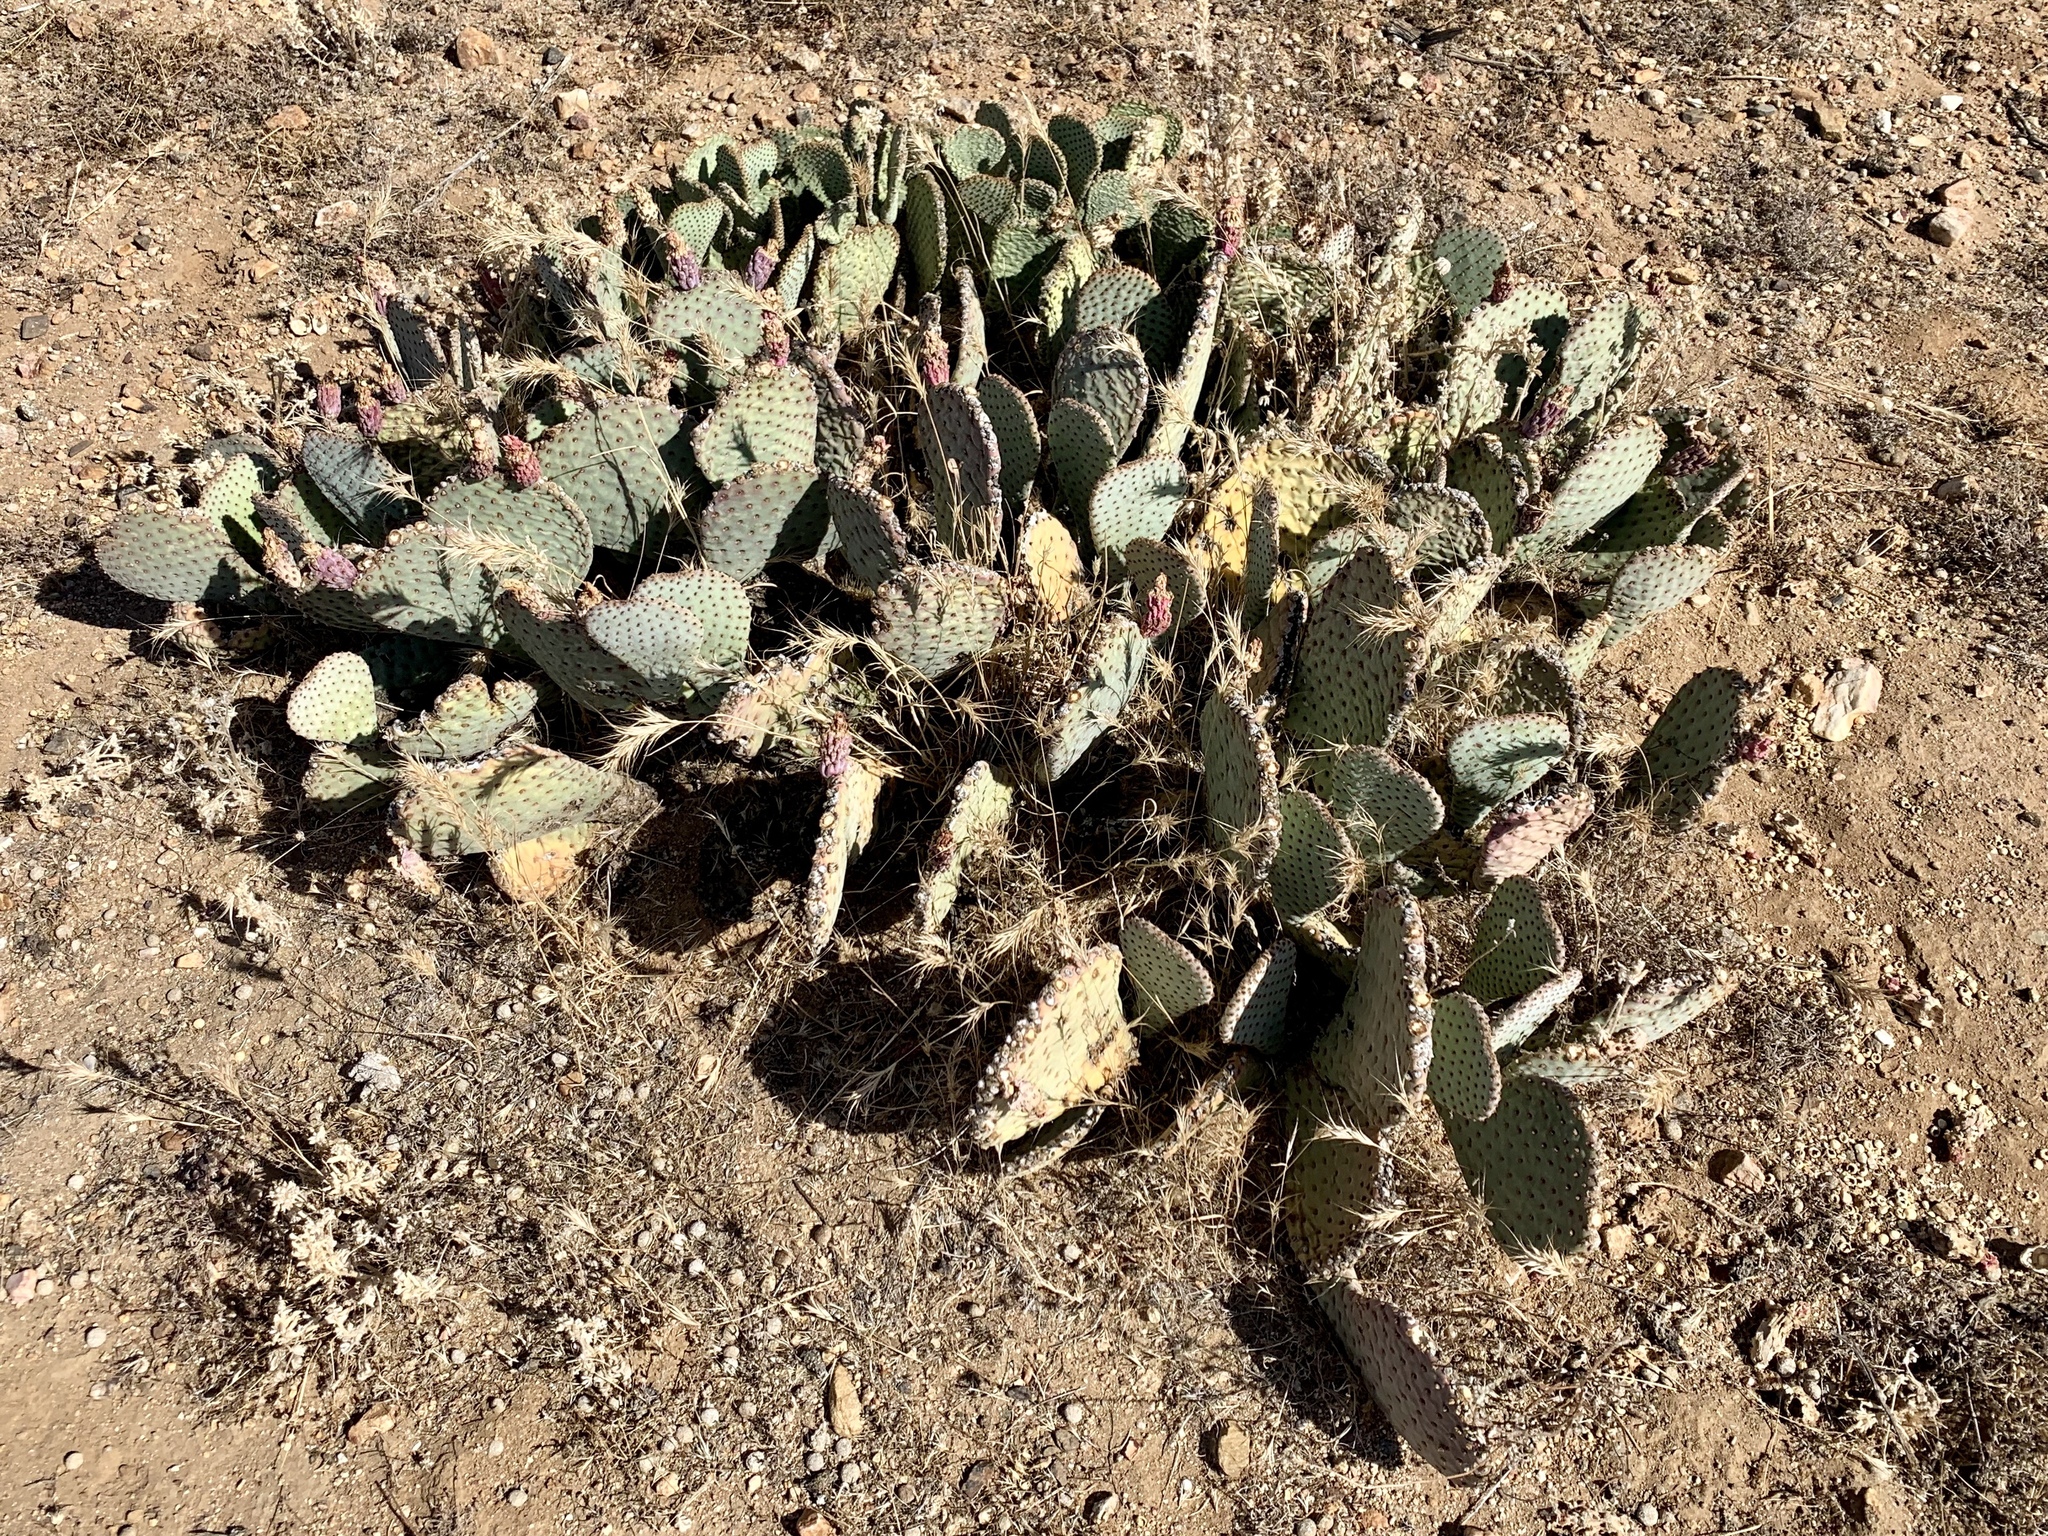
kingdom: Plantae
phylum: Tracheophyta
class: Magnoliopsida
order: Caryophyllales
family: Cactaceae
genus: Opuntia
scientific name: Opuntia basilaris
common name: Beavertail prickly-pear
